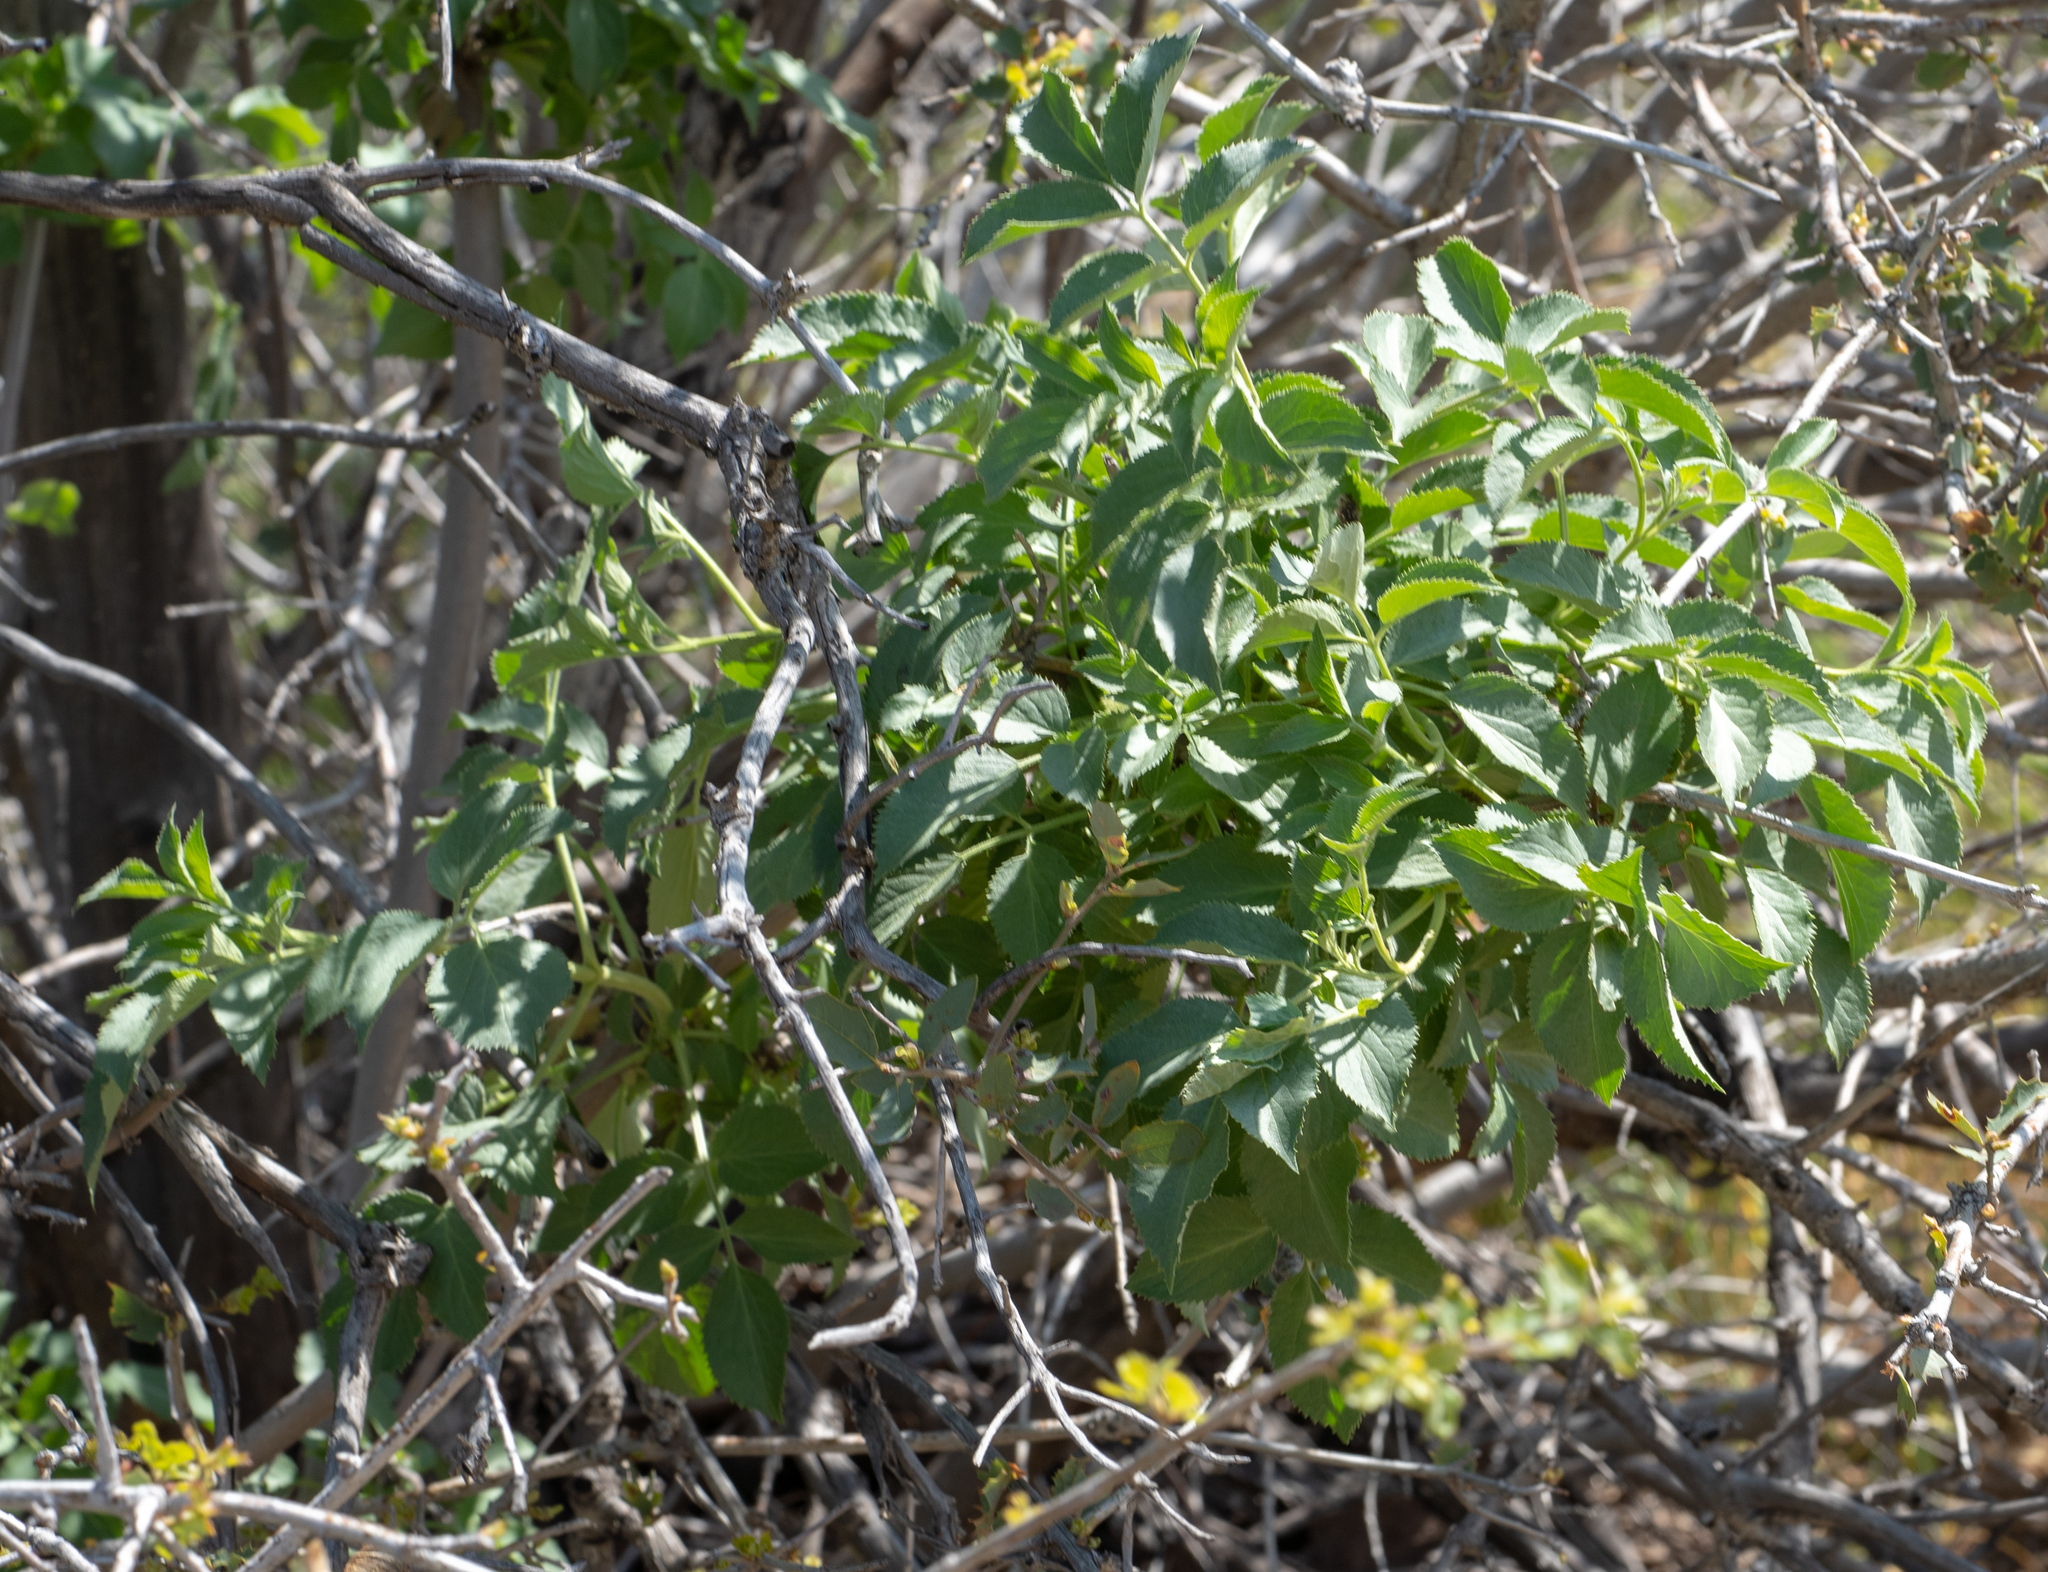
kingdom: Plantae
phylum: Tracheophyta
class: Magnoliopsida
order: Dipsacales
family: Viburnaceae
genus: Sambucus
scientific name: Sambucus cerulea
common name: Blue elder
